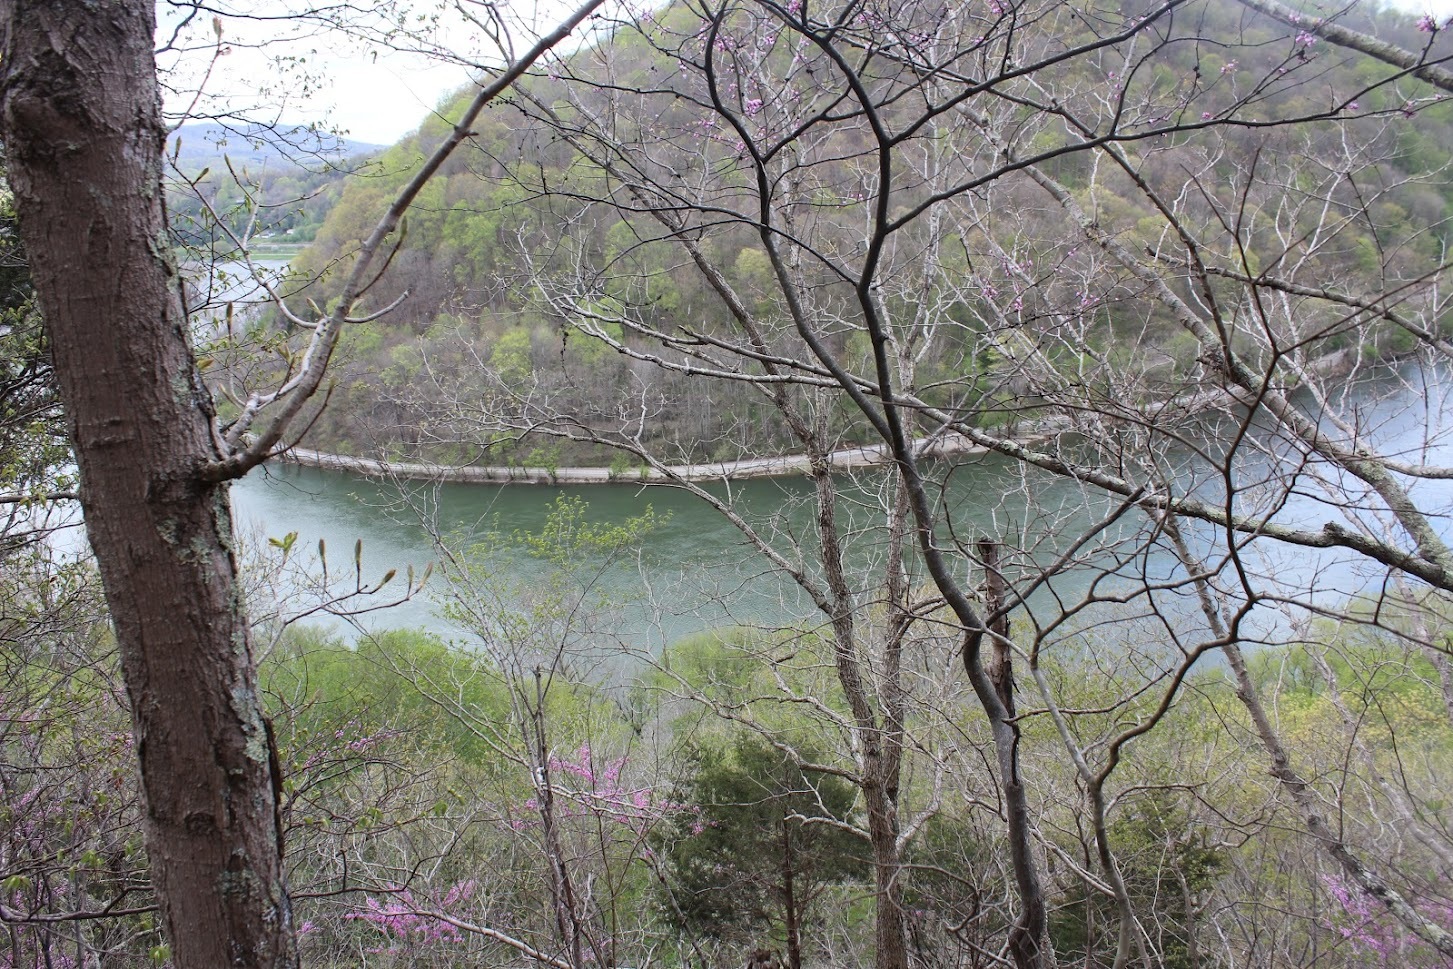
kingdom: Plantae
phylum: Tracheophyta
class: Magnoliopsida
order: Fabales
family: Fabaceae
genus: Cercis
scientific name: Cercis canadensis
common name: Eastern redbud
